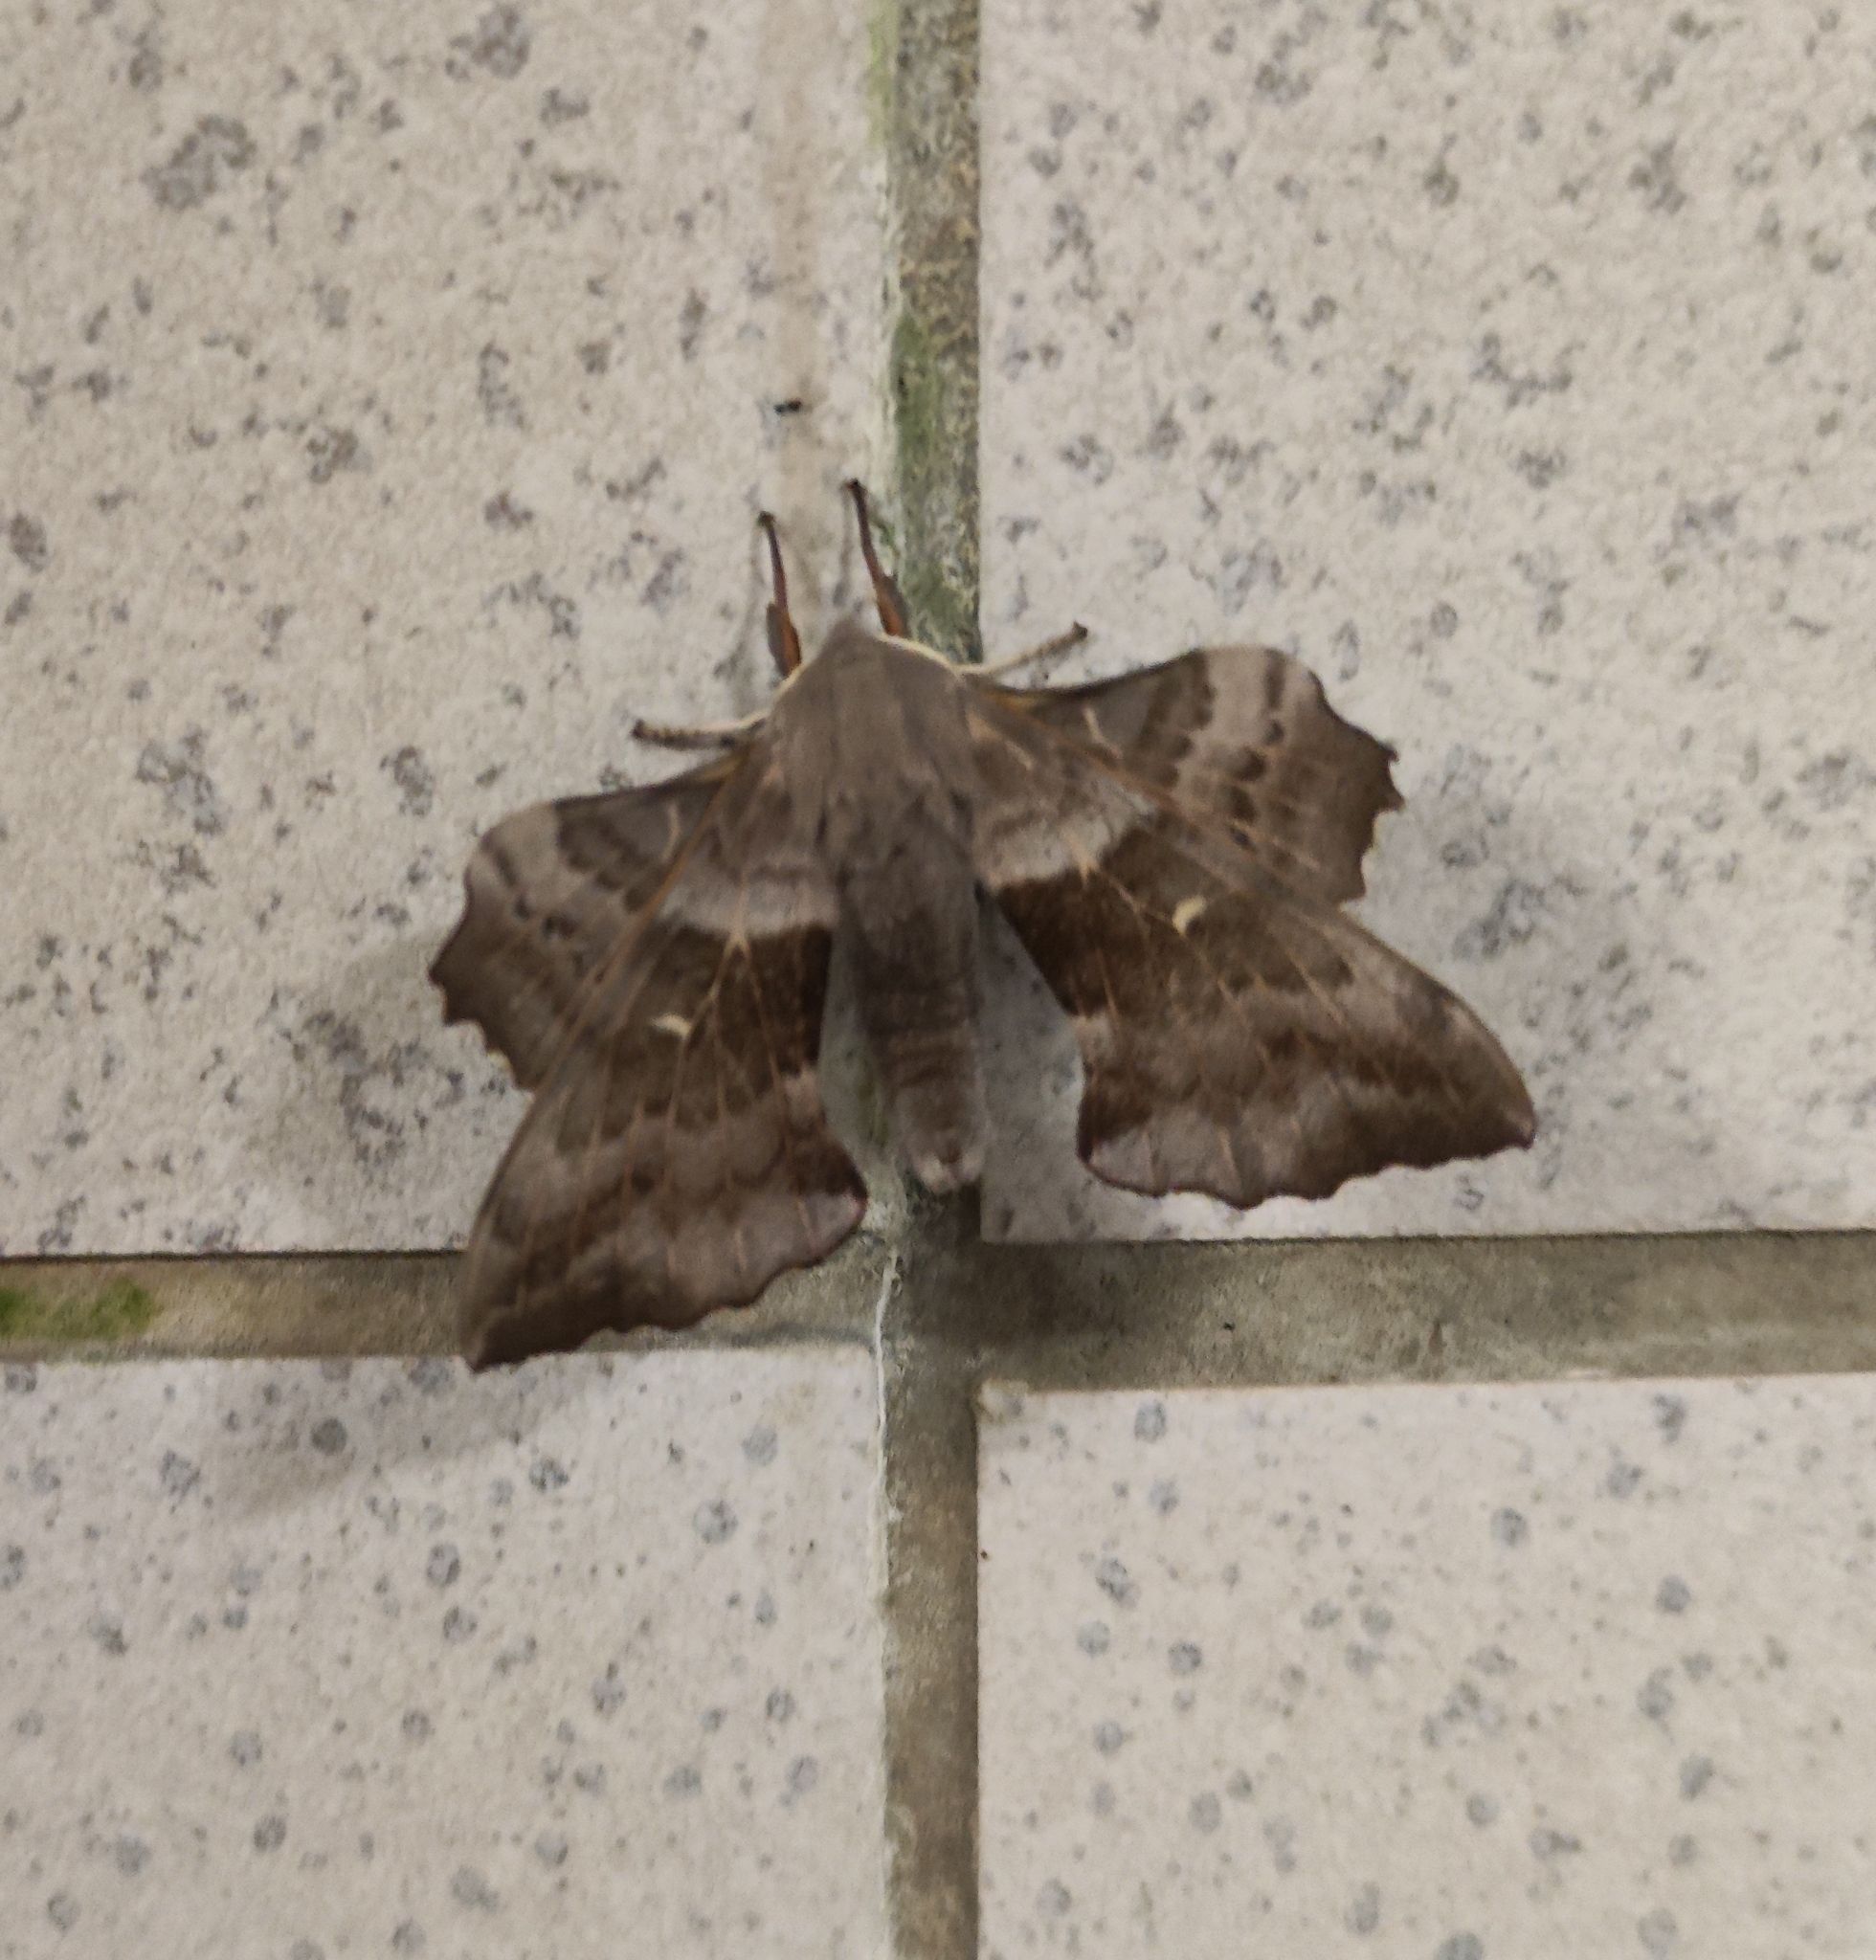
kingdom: Animalia
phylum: Arthropoda
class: Insecta
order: Lepidoptera
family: Sphingidae
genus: Laothoe
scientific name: Laothoe populi
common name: Poplar hawk-moth
